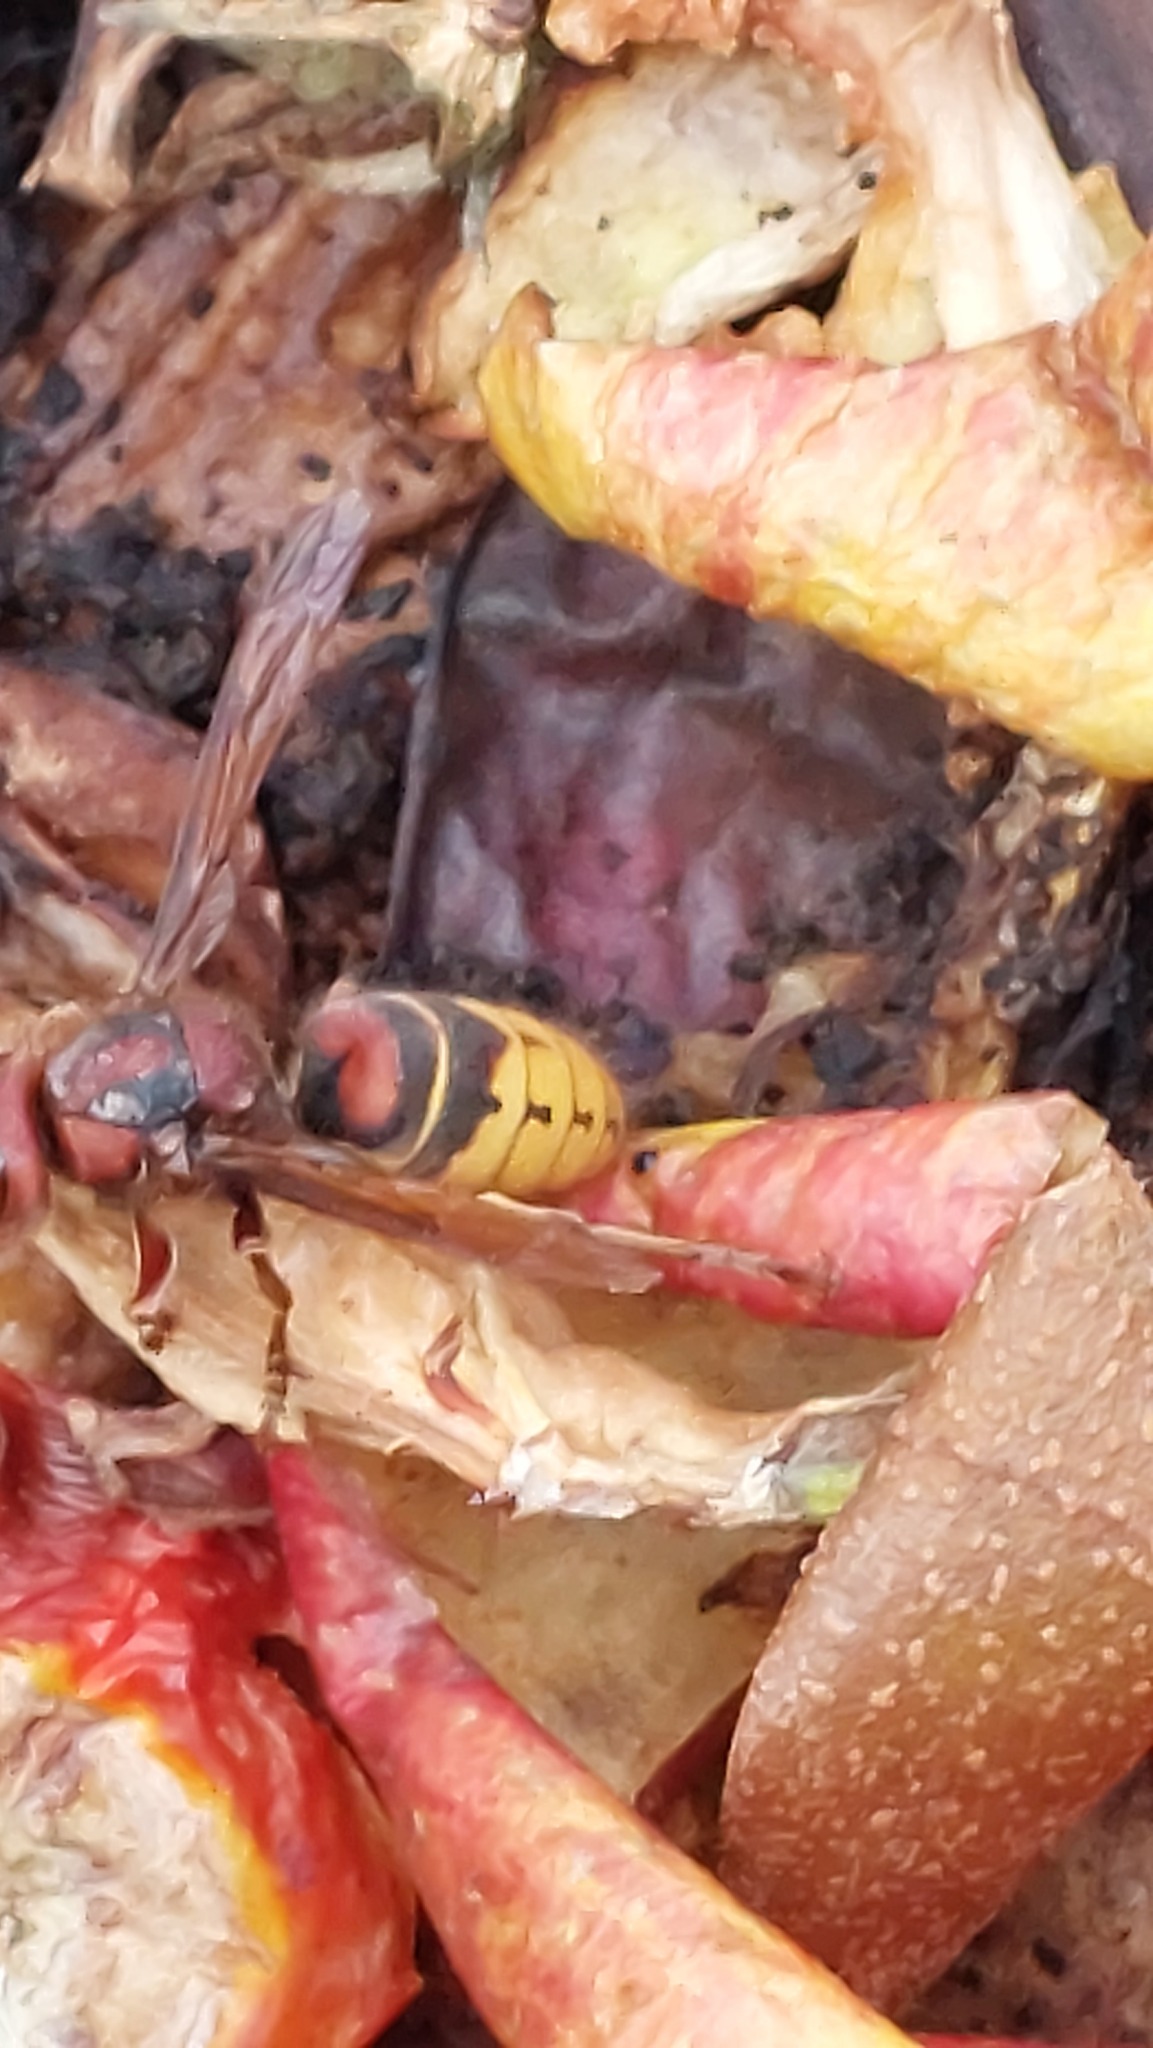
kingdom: Animalia
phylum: Arthropoda
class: Insecta
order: Hymenoptera
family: Vespidae
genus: Vespa
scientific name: Vespa crabro
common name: Hornet
